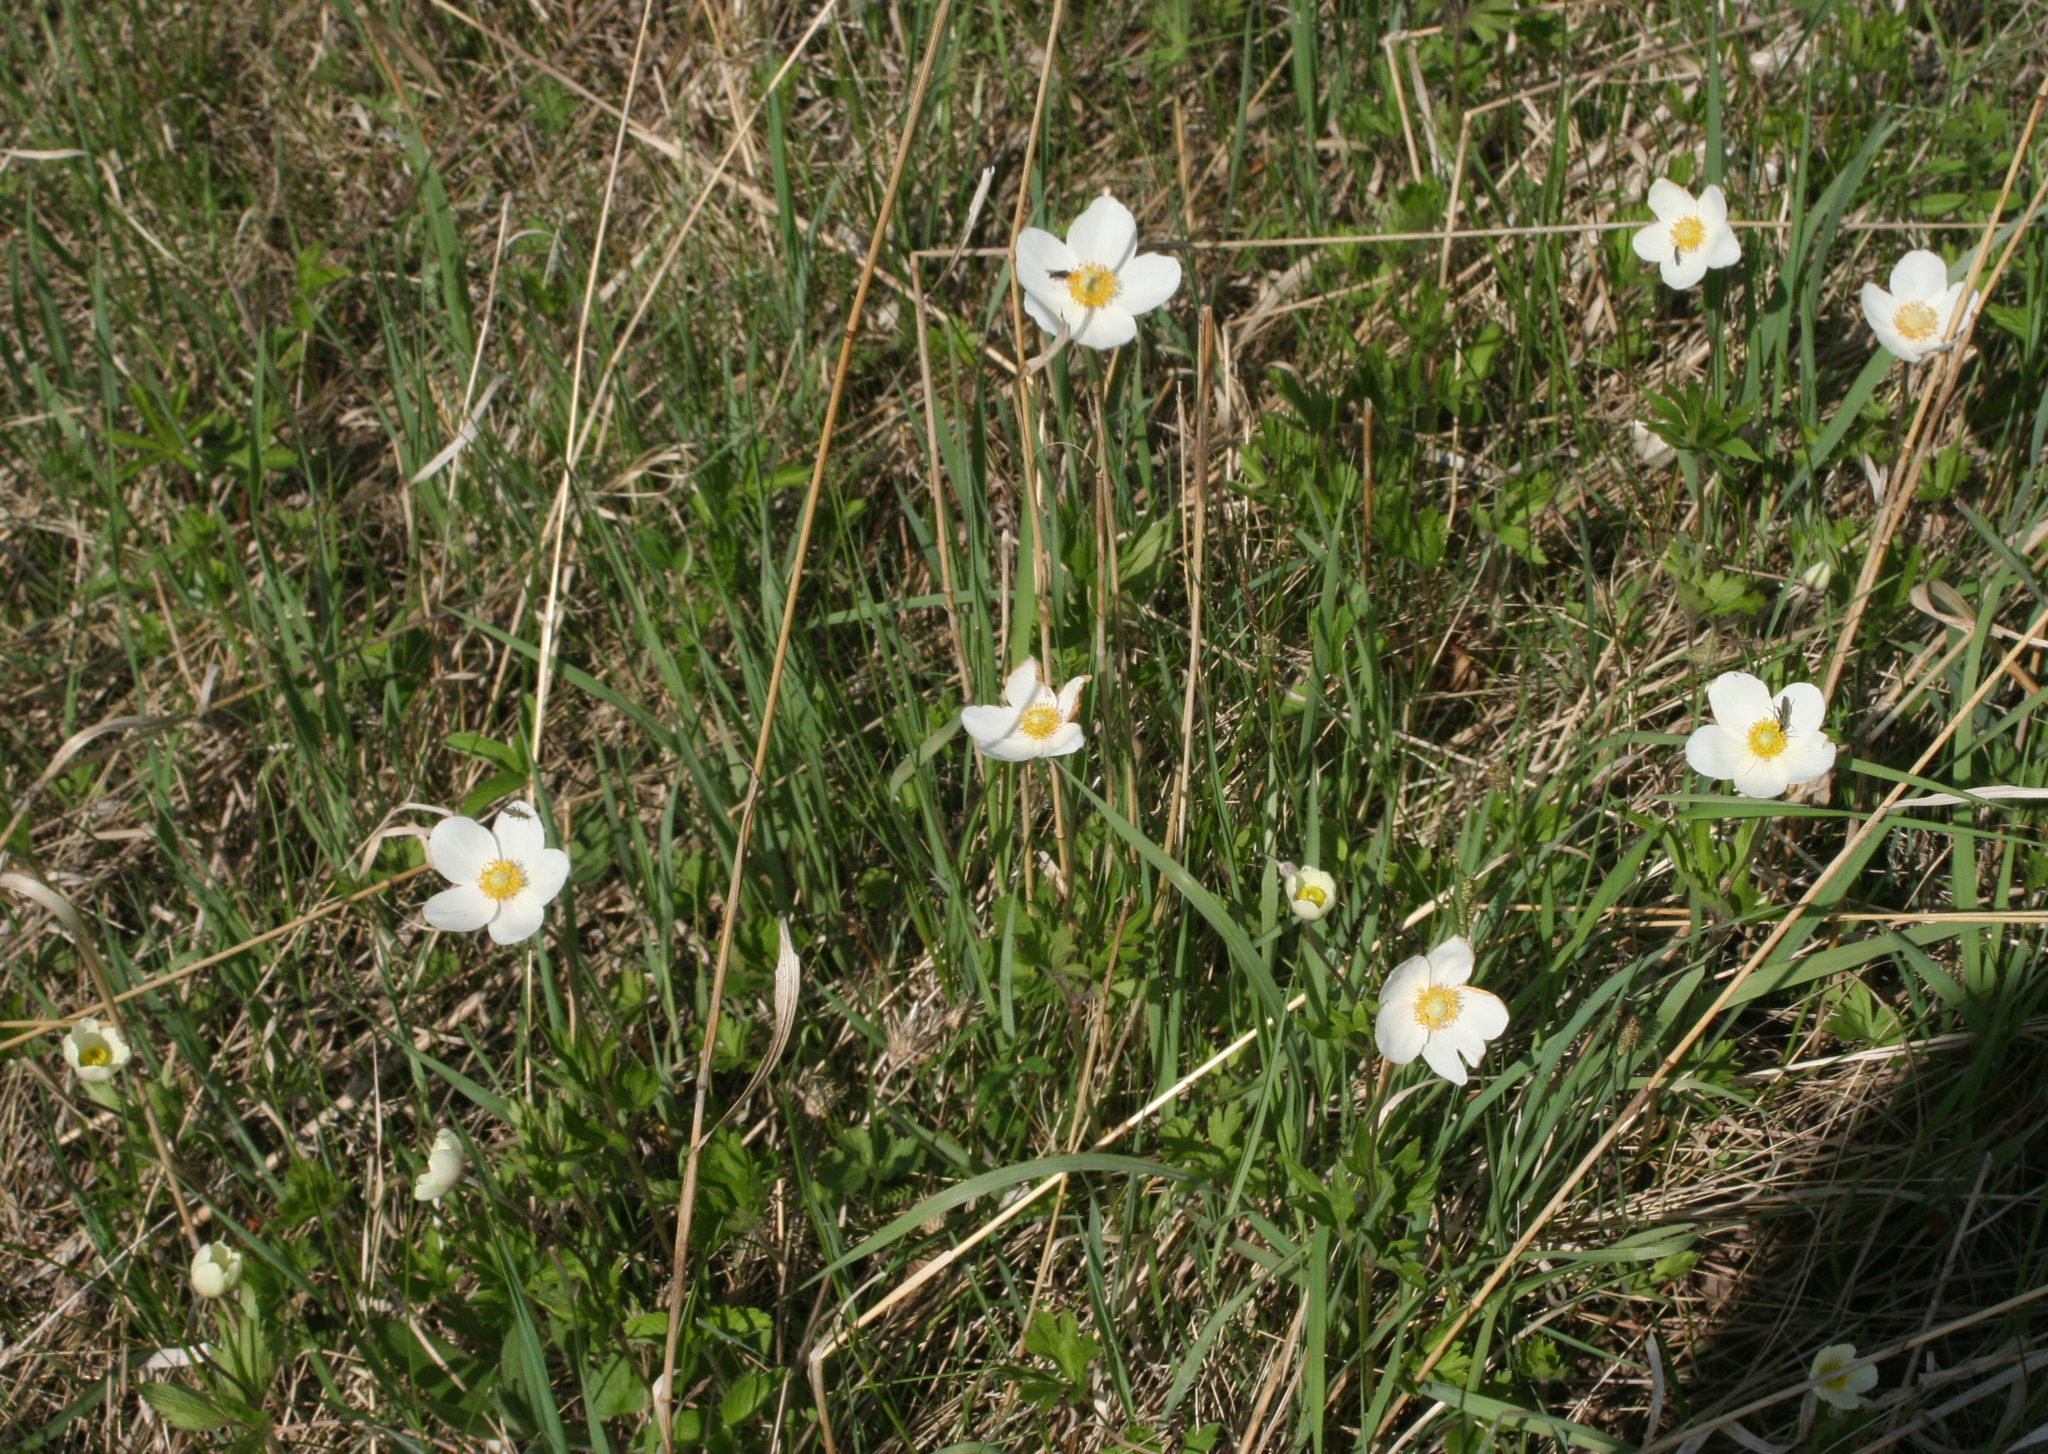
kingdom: Plantae
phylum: Tracheophyta
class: Magnoliopsida
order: Ranunculales
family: Ranunculaceae
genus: Anemone
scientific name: Anemone sylvestris
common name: Snowdrop anemone
